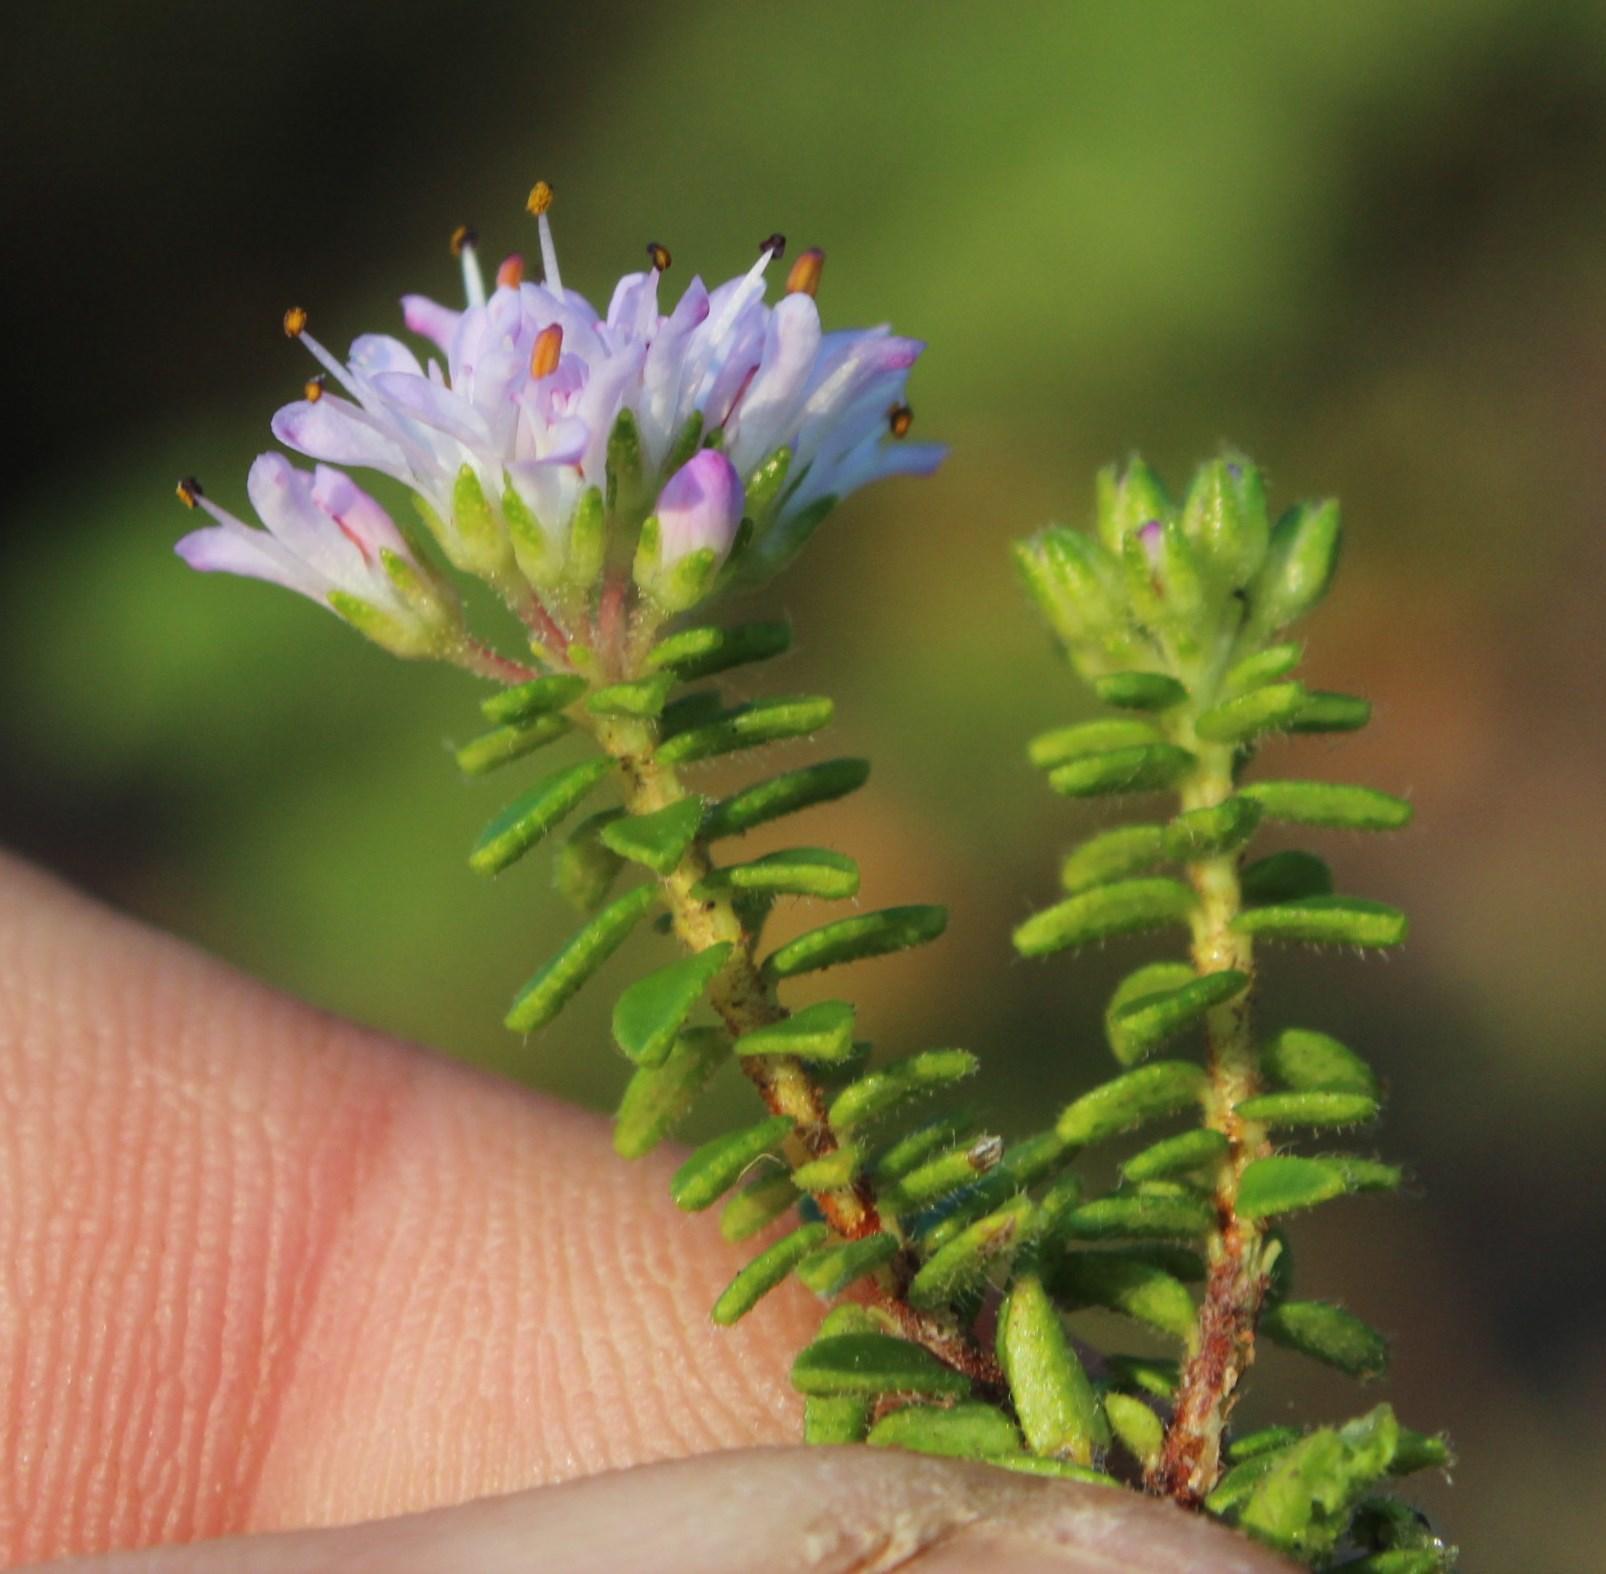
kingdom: Plantae
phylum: Tracheophyta
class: Magnoliopsida
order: Sapindales
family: Rutaceae
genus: Agathosma
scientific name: Agathosma ciliaris
